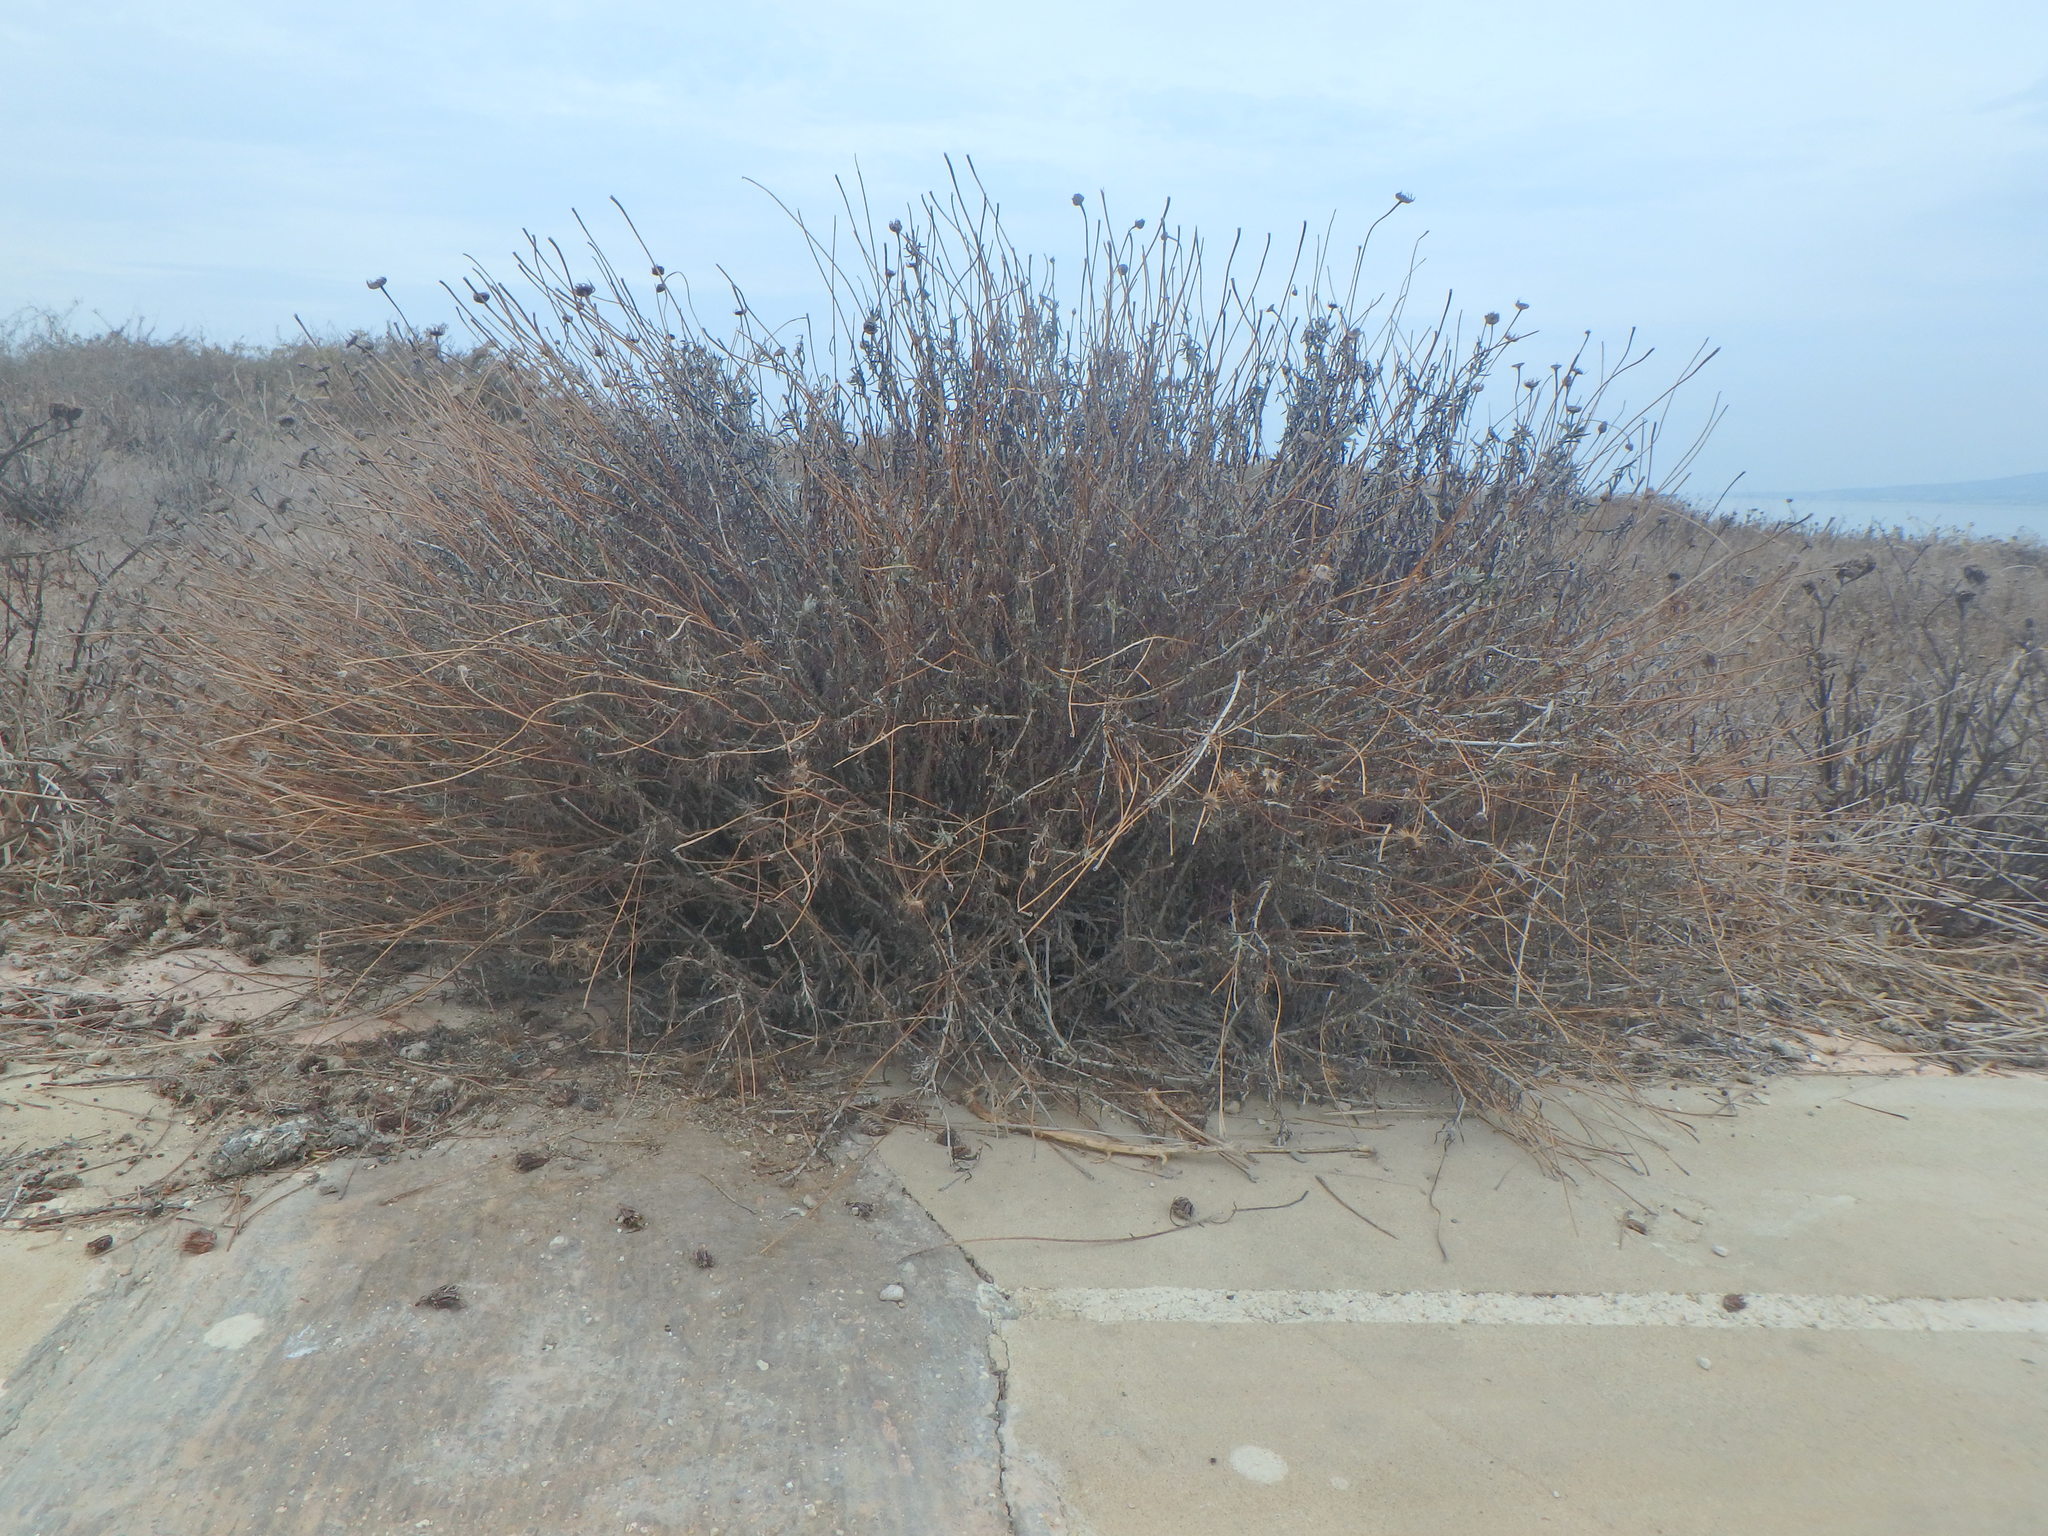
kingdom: Plantae
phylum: Tracheophyta
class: Magnoliopsida
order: Asterales
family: Asteraceae
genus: Phagnalon
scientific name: Phagnalon
